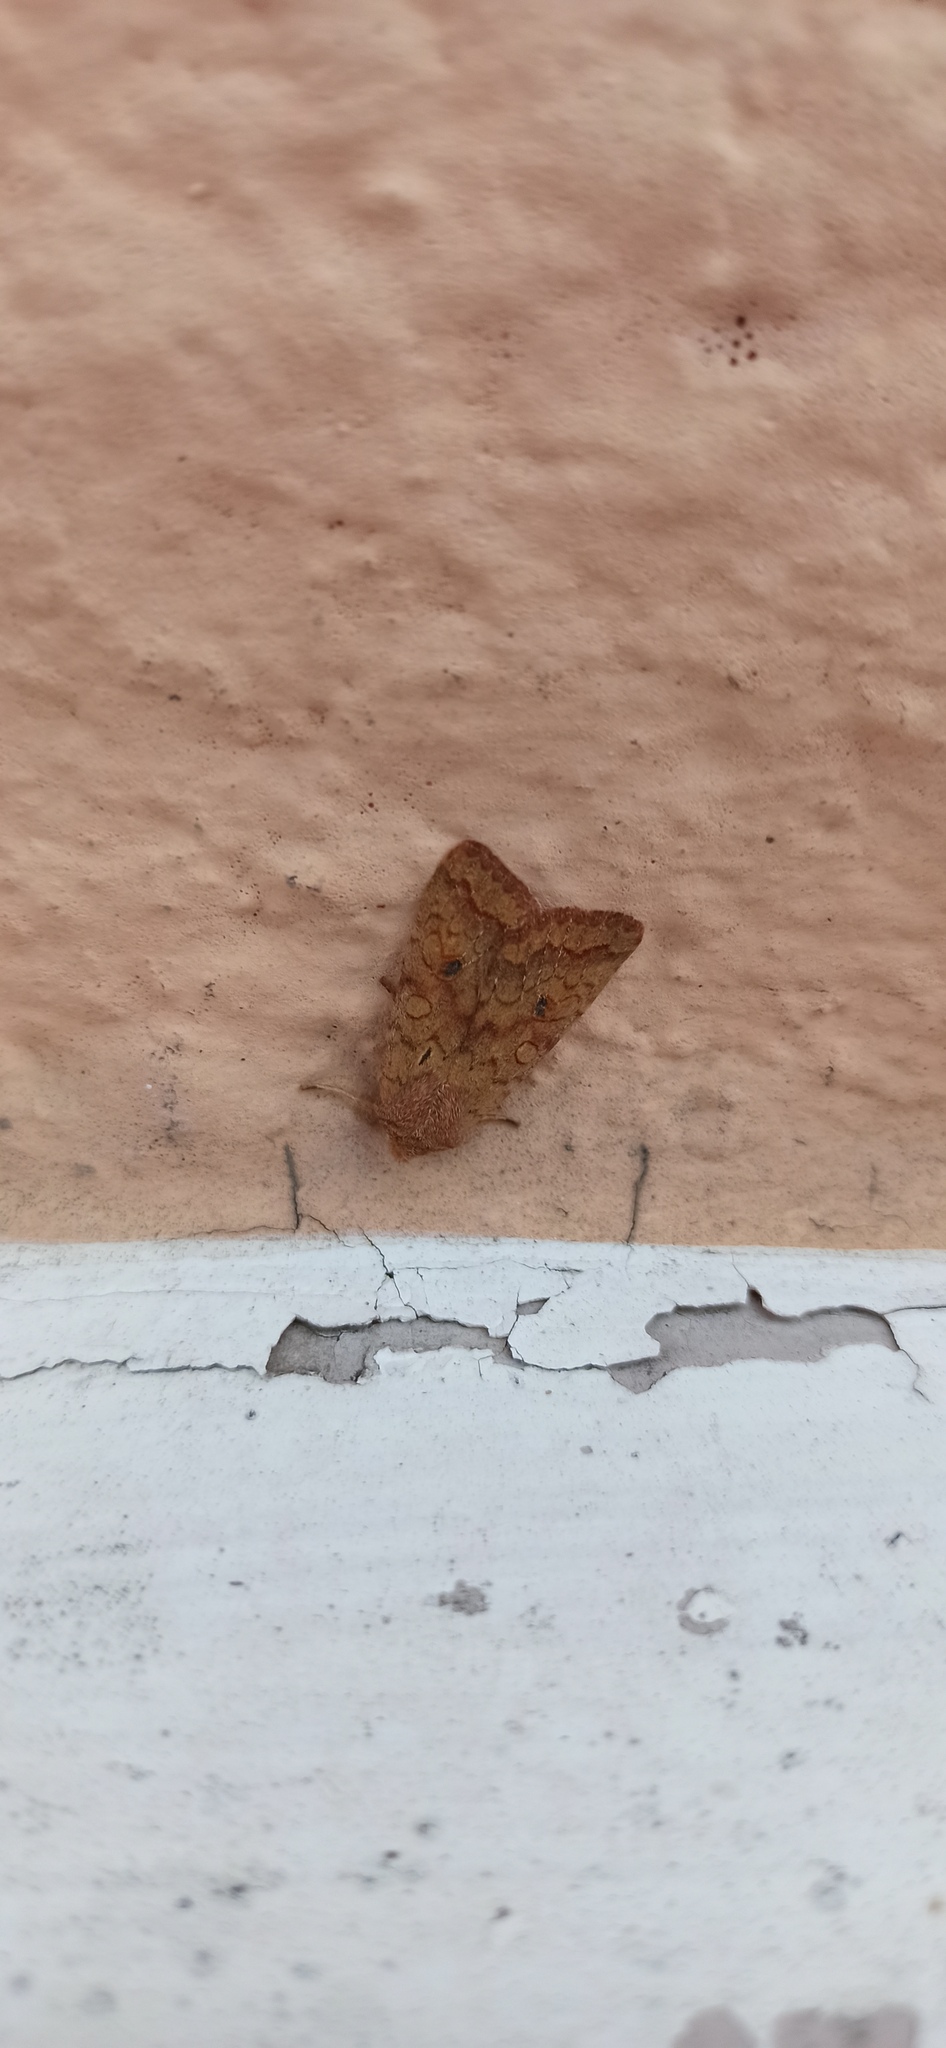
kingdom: Animalia
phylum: Arthropoda
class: Insecta
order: Lepidoptera
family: Noctuidae
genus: Sunira
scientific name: Sunira circellaris
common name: Brick
